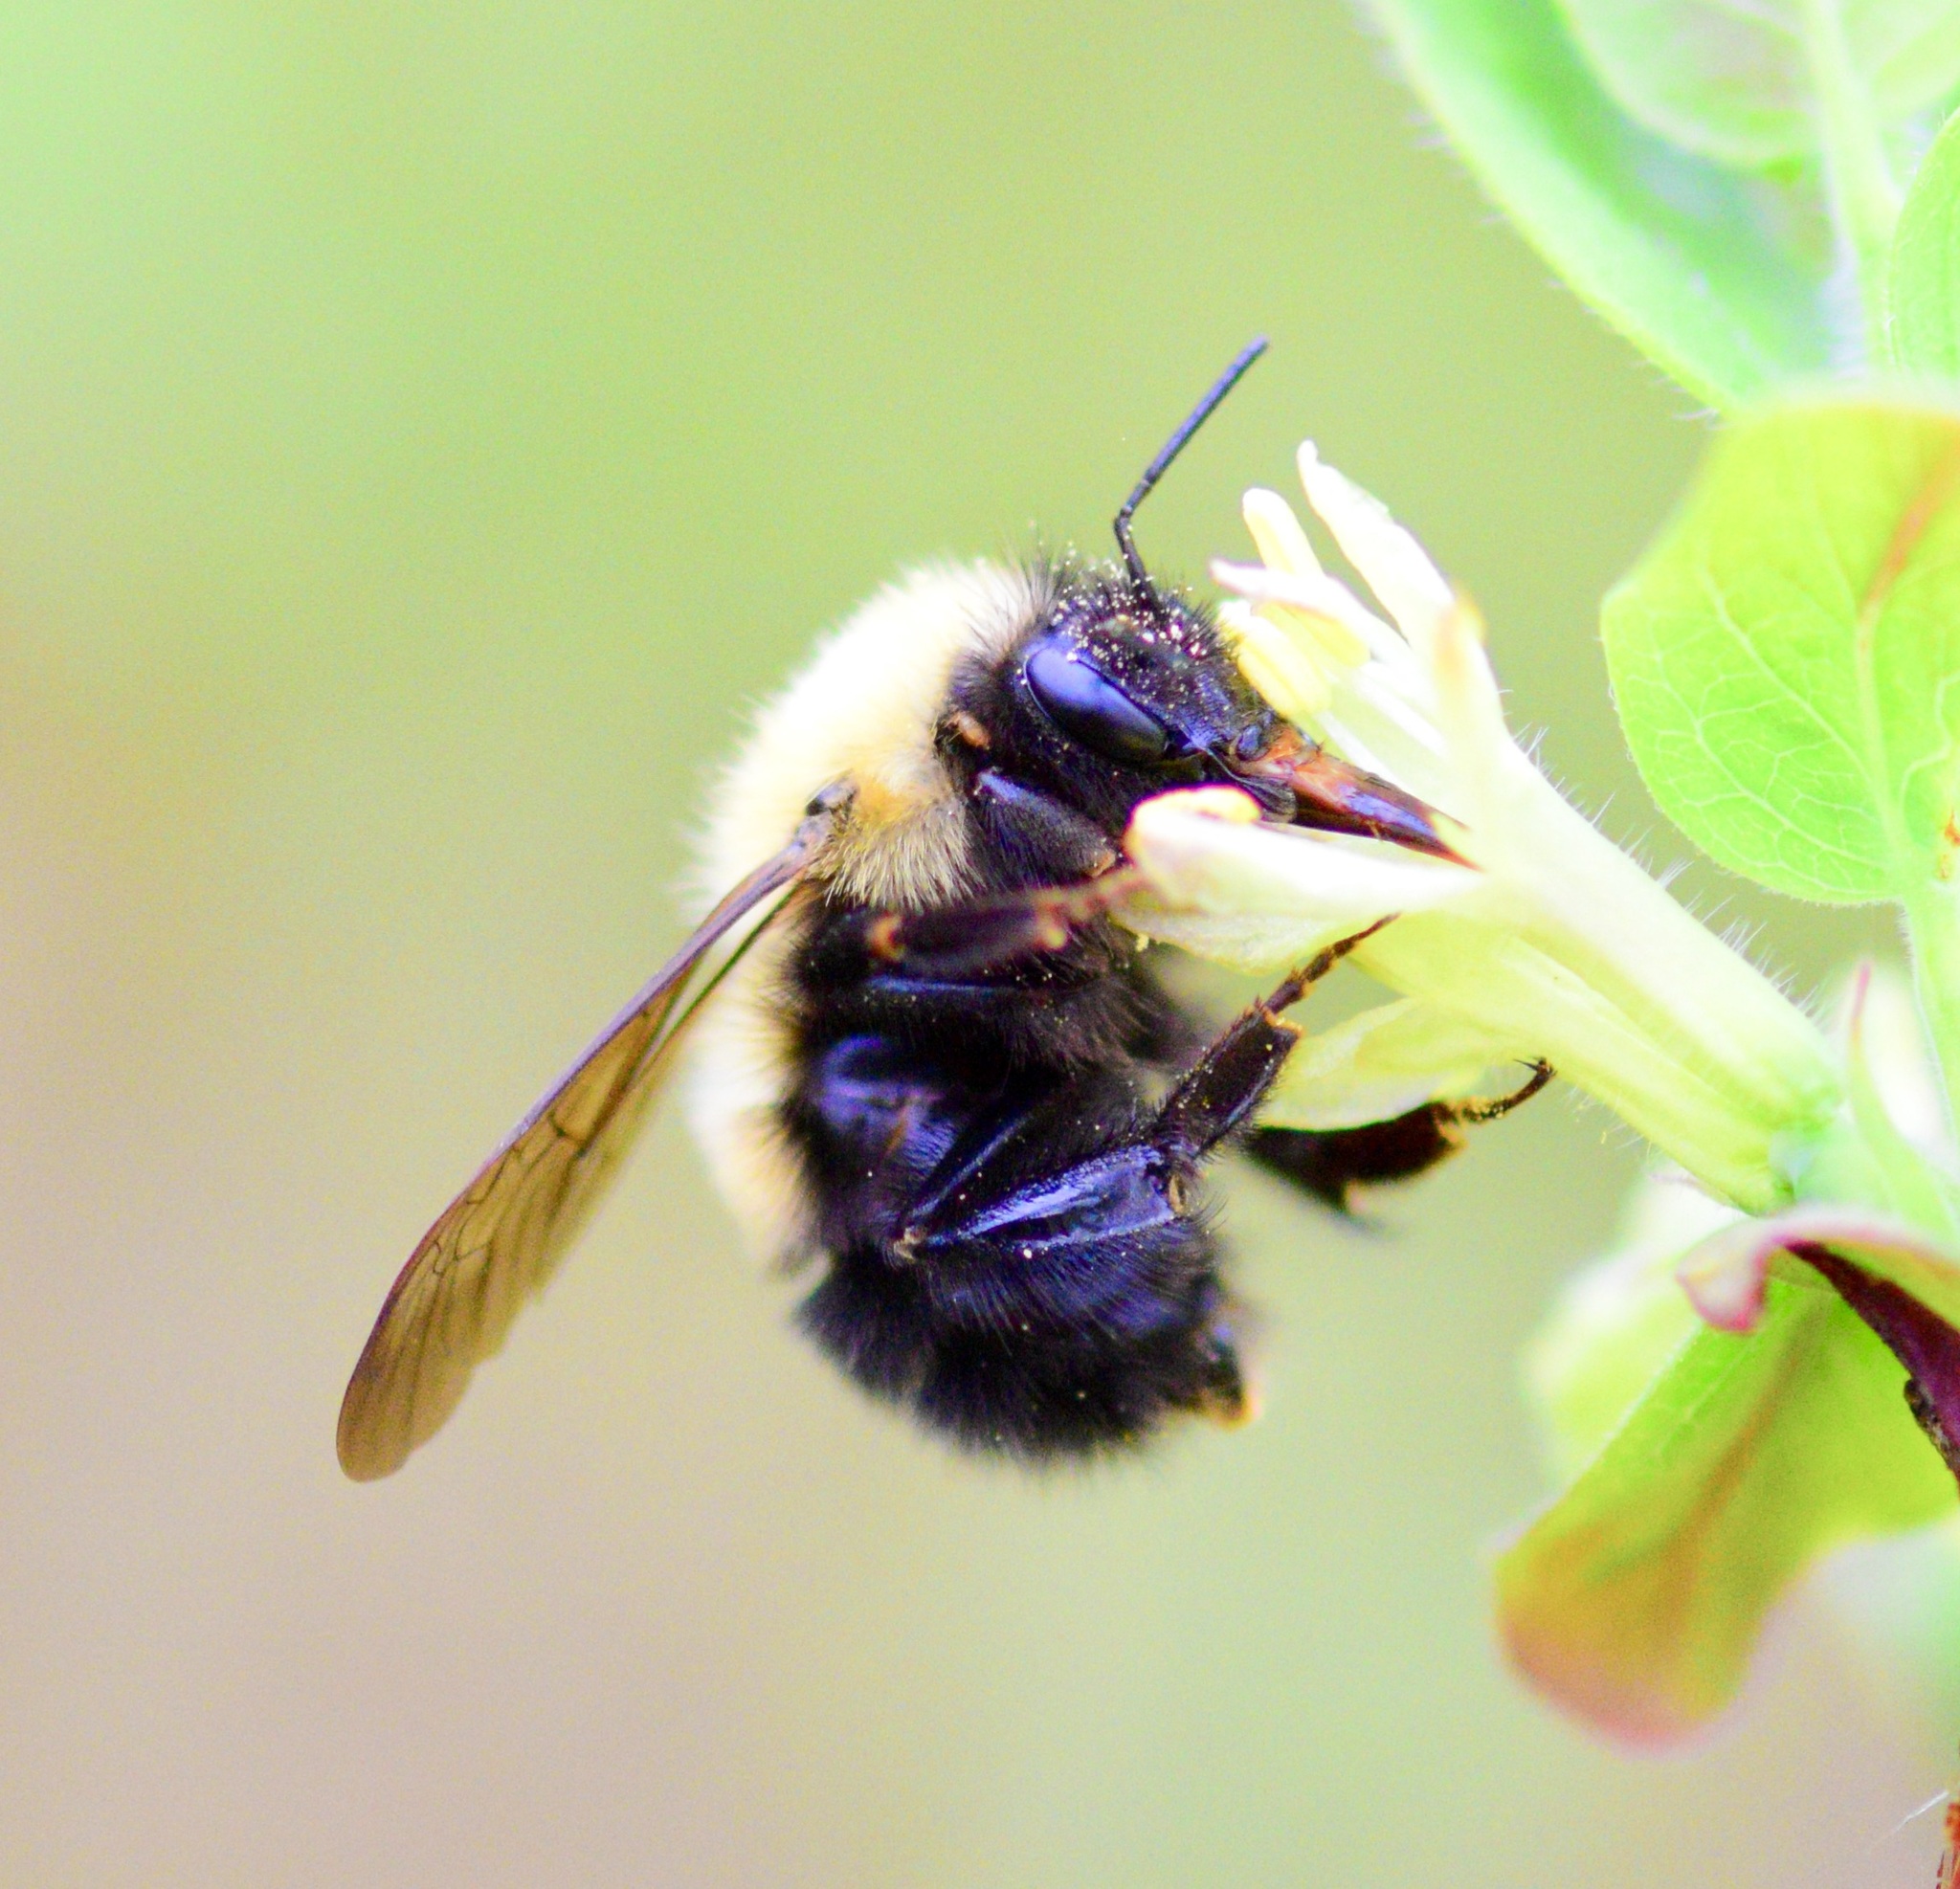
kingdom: Animalia
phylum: Arthropoda
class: Insecta
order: Hymenoptera
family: Apidae
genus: Bombus
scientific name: Bombus perplexus
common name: Confusing bumble bee
